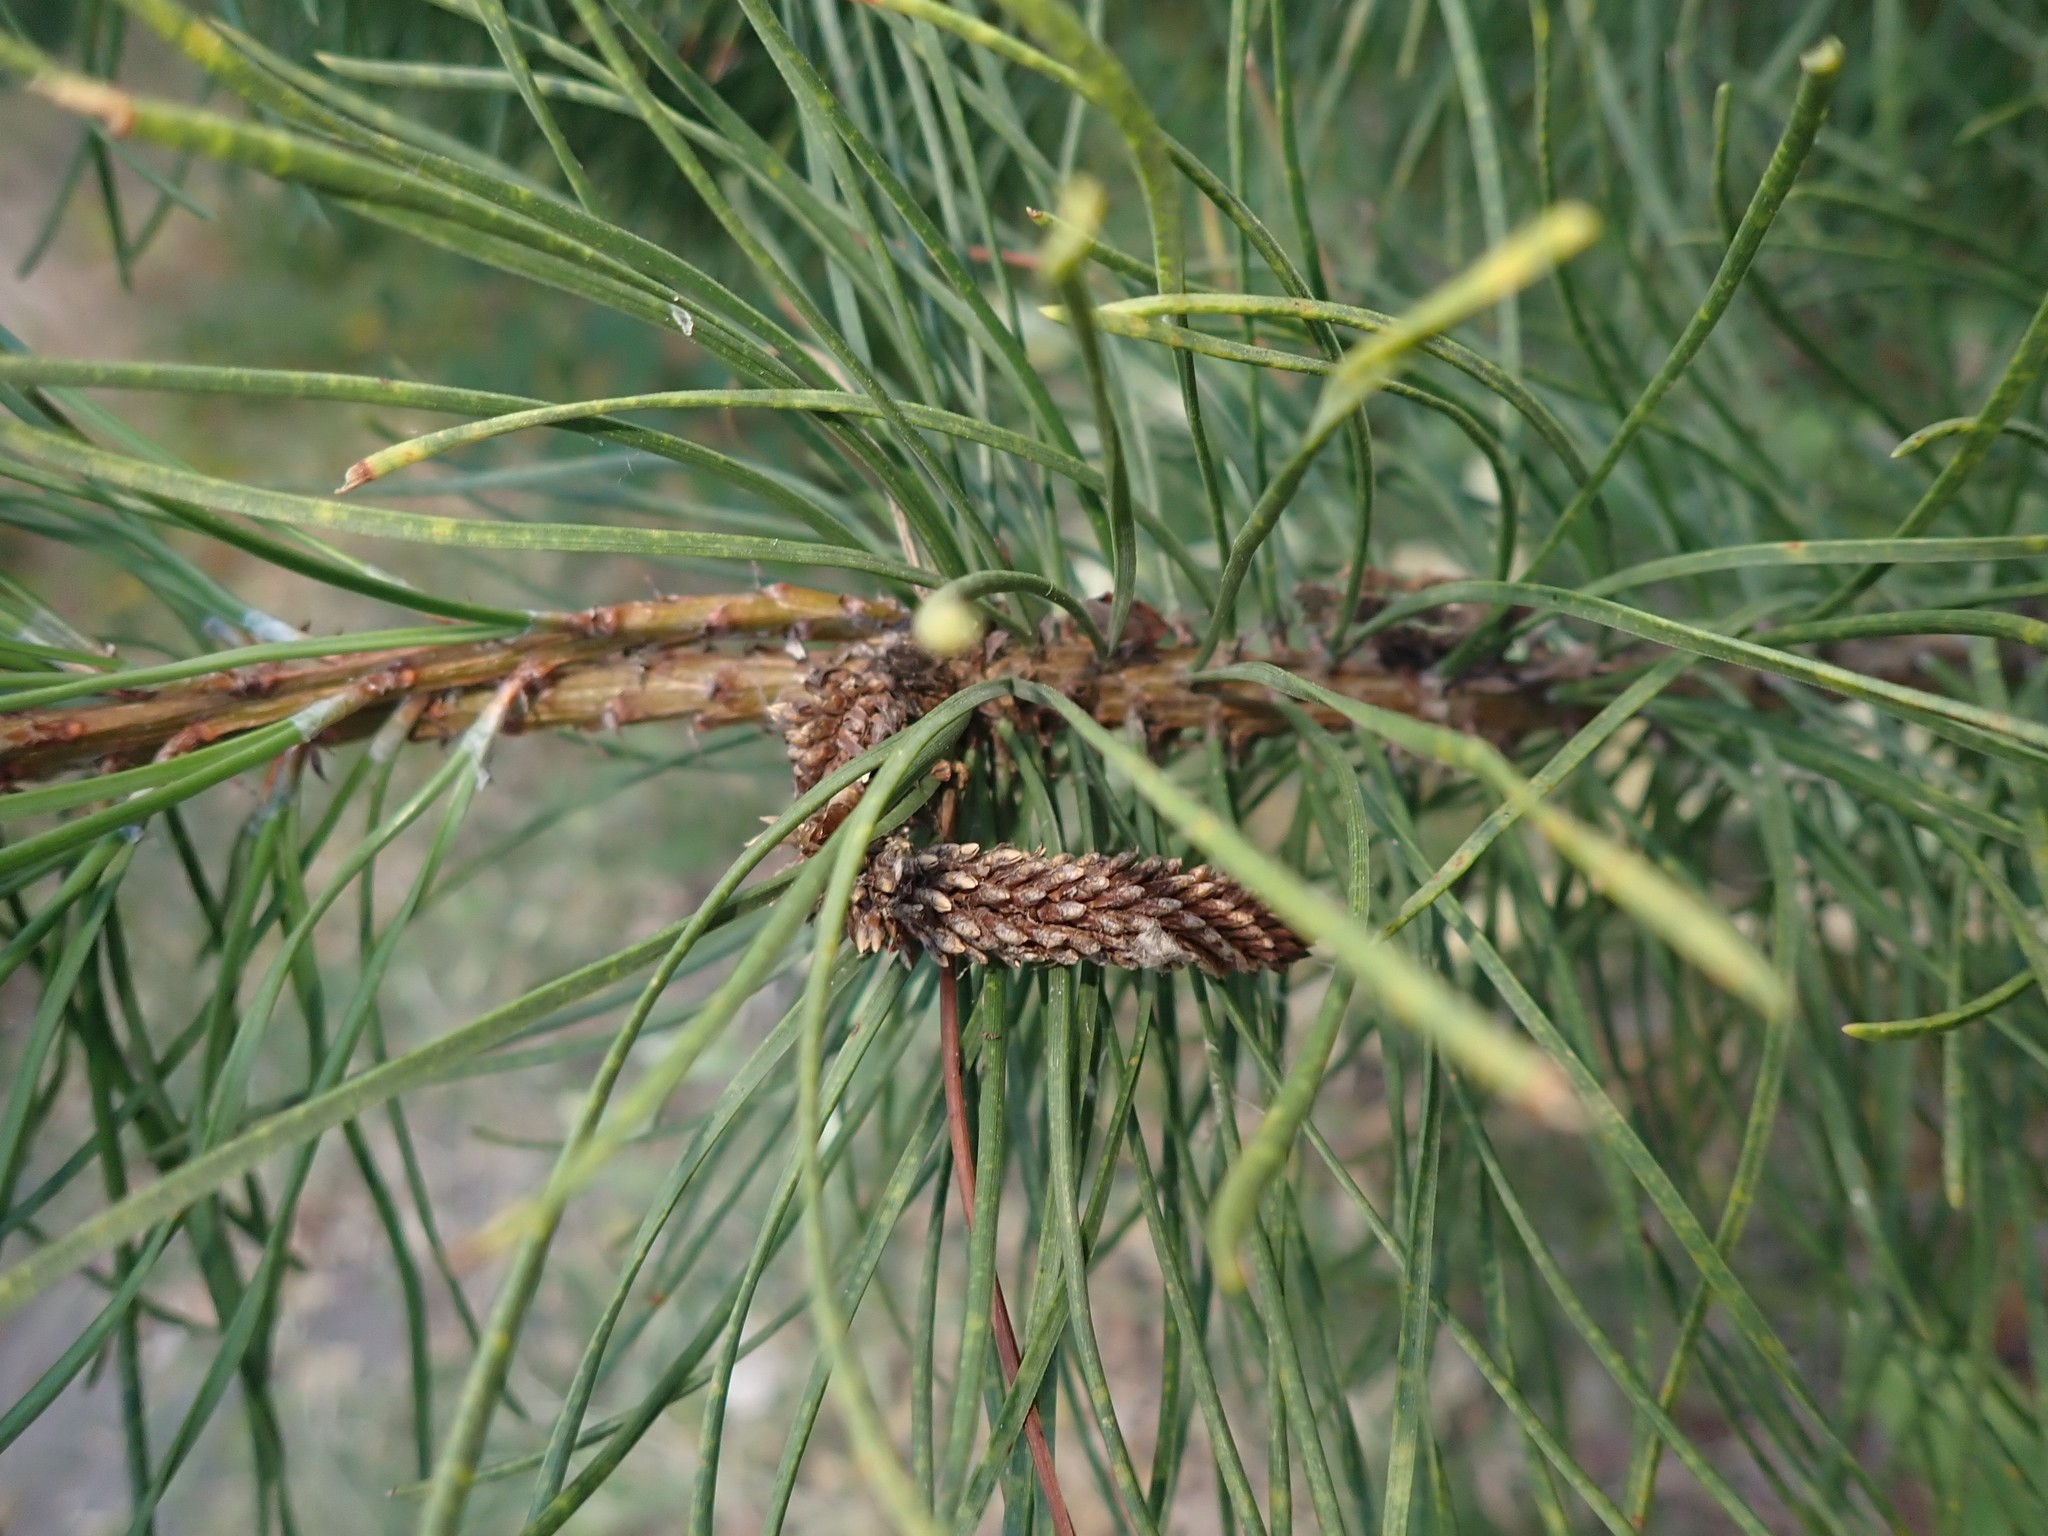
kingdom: Plantae
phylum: Tracheophyta
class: Pinopsida
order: Pinales
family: Pinaceae
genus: Pinus
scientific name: Pinus contorta
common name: Lodgepole pine
